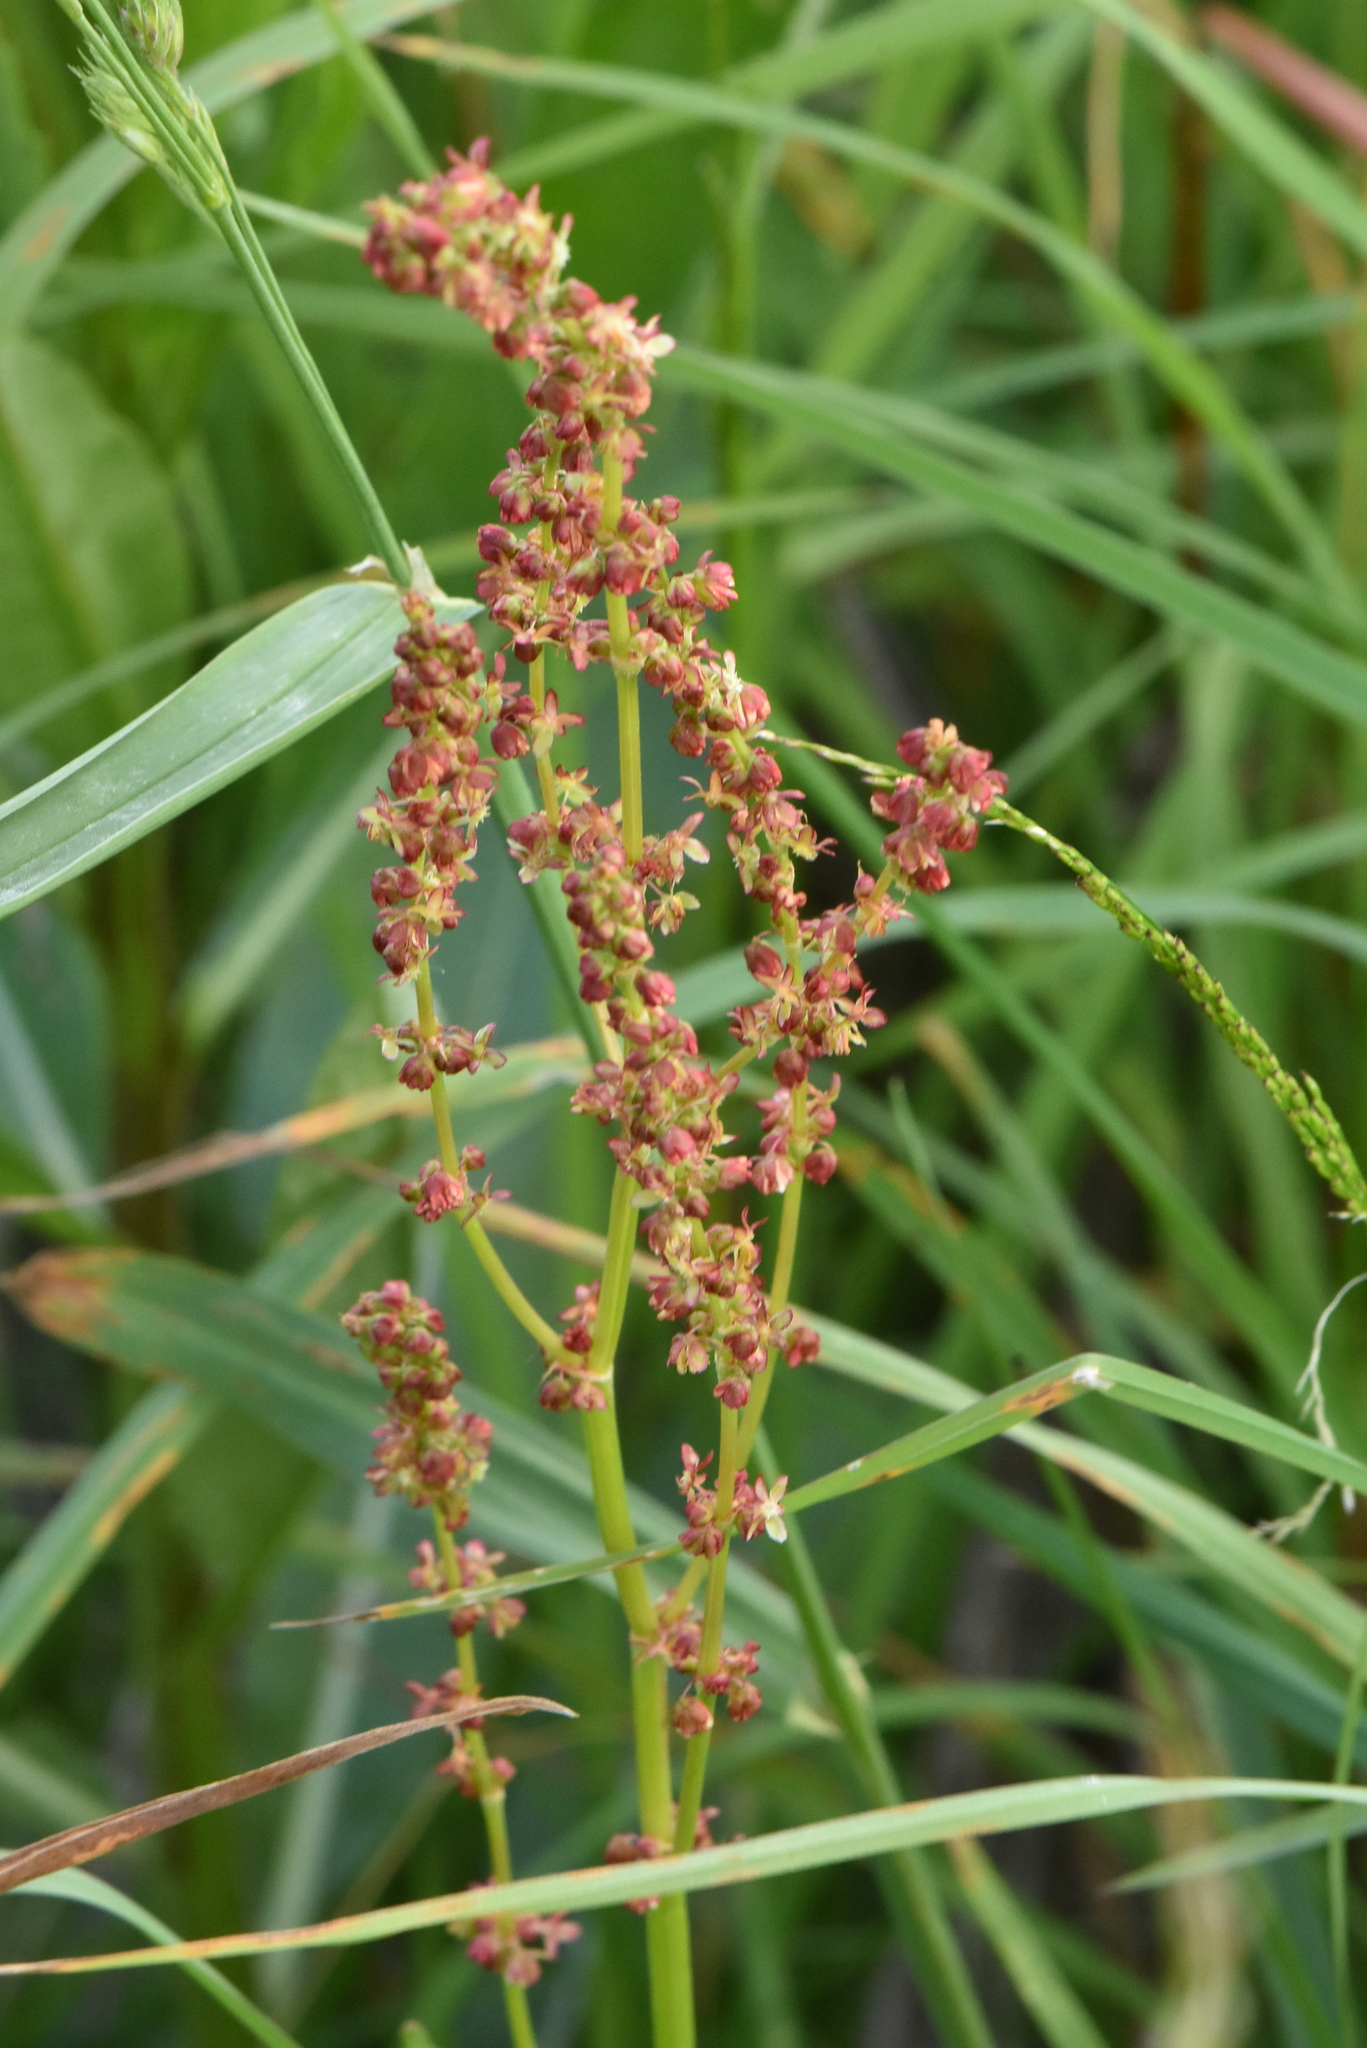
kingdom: Plantae
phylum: Tracheophyta
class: Magnoliopsida
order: Caryophyllales
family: Polygonaceae
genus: Rumex
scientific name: Rumex acetosa
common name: Garden sorrel
